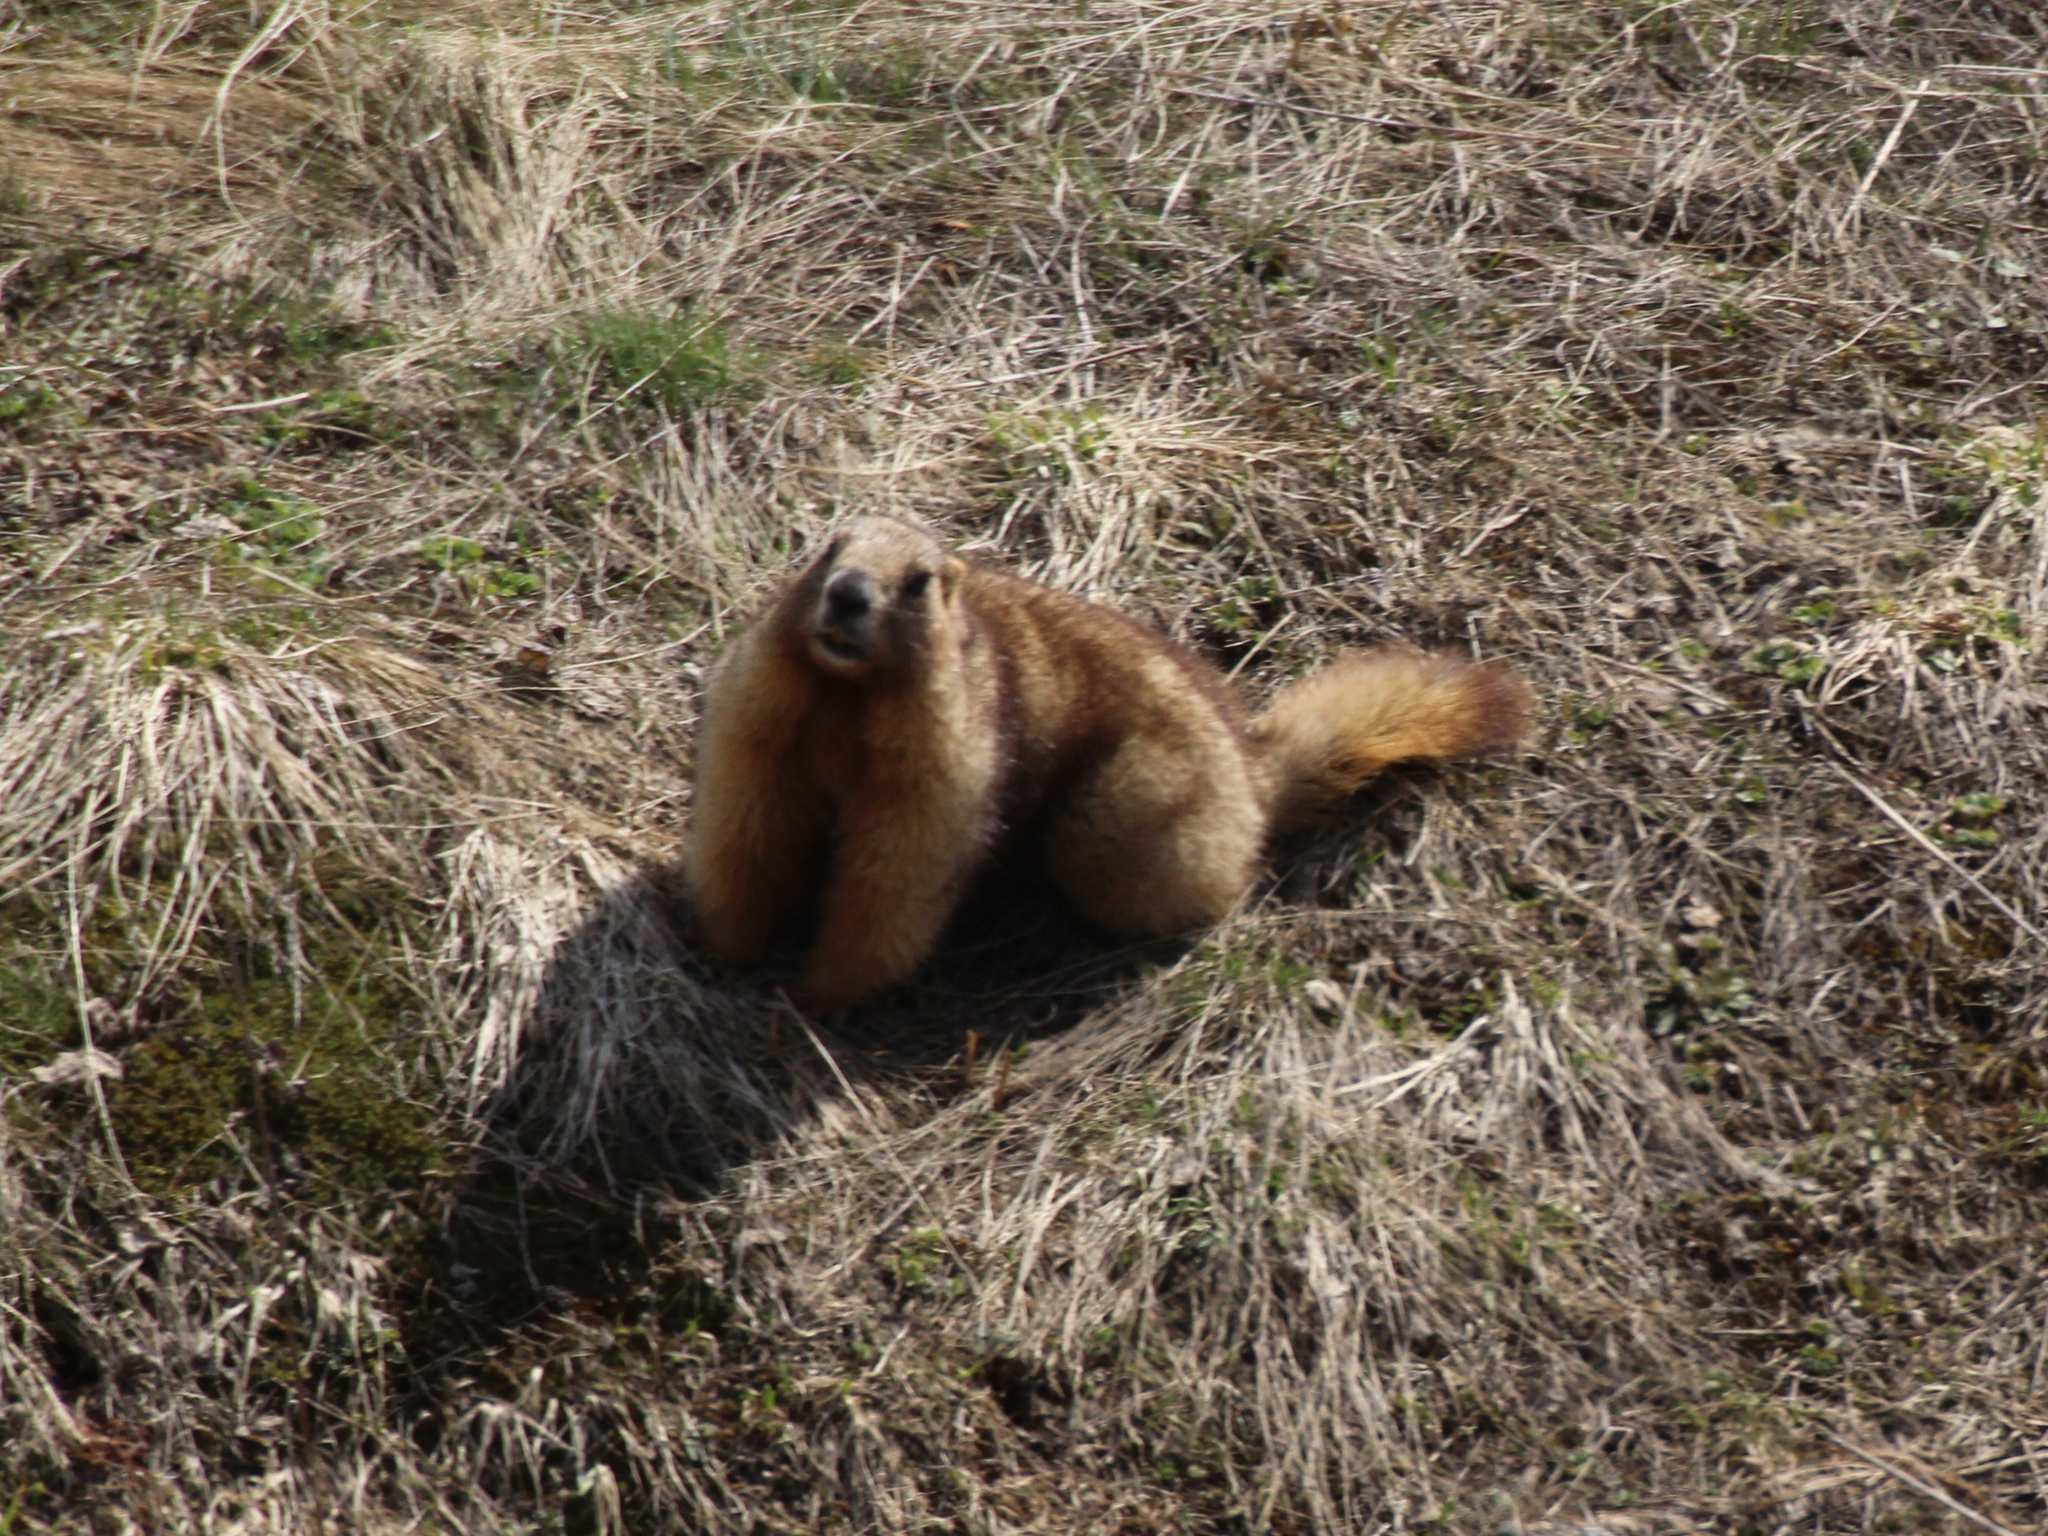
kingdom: Animalia
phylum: Chordata
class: Mammalia
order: Rodentia
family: Sciuridae
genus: Marmota
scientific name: Marmota baibacina
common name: Gray marmot
